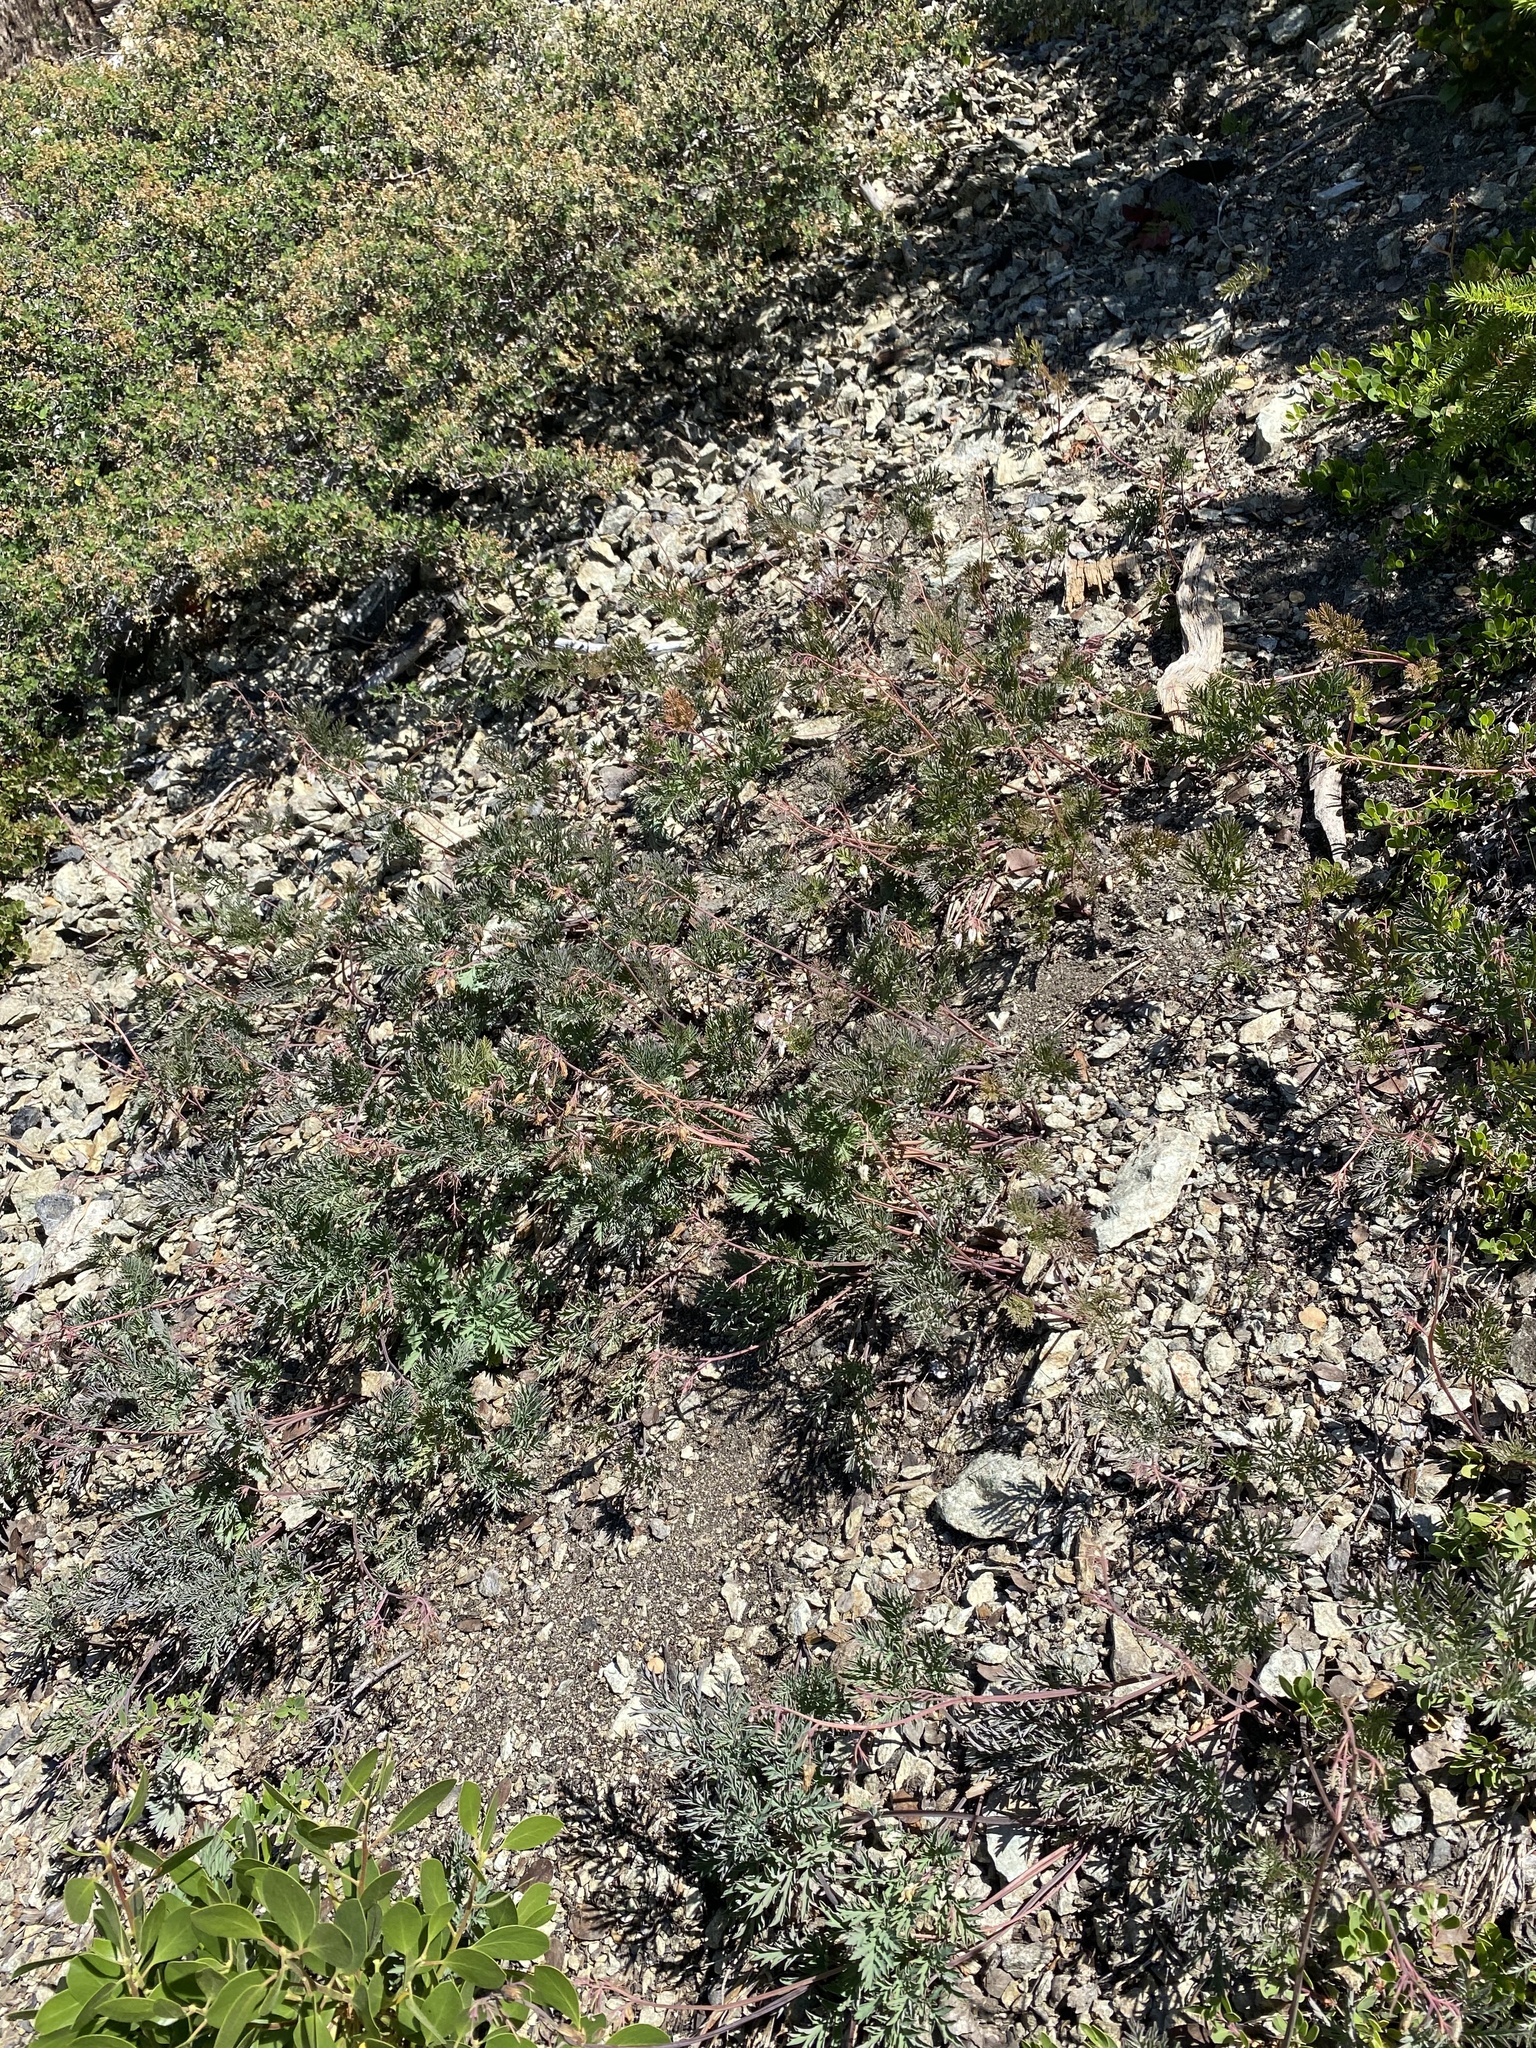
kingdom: Plantae
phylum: Tracheophyta
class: Magnoliopsida
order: Ranunculales
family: Papaveraceae
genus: Dicentra
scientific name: Dicentra formosa
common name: Bleeding-heart
